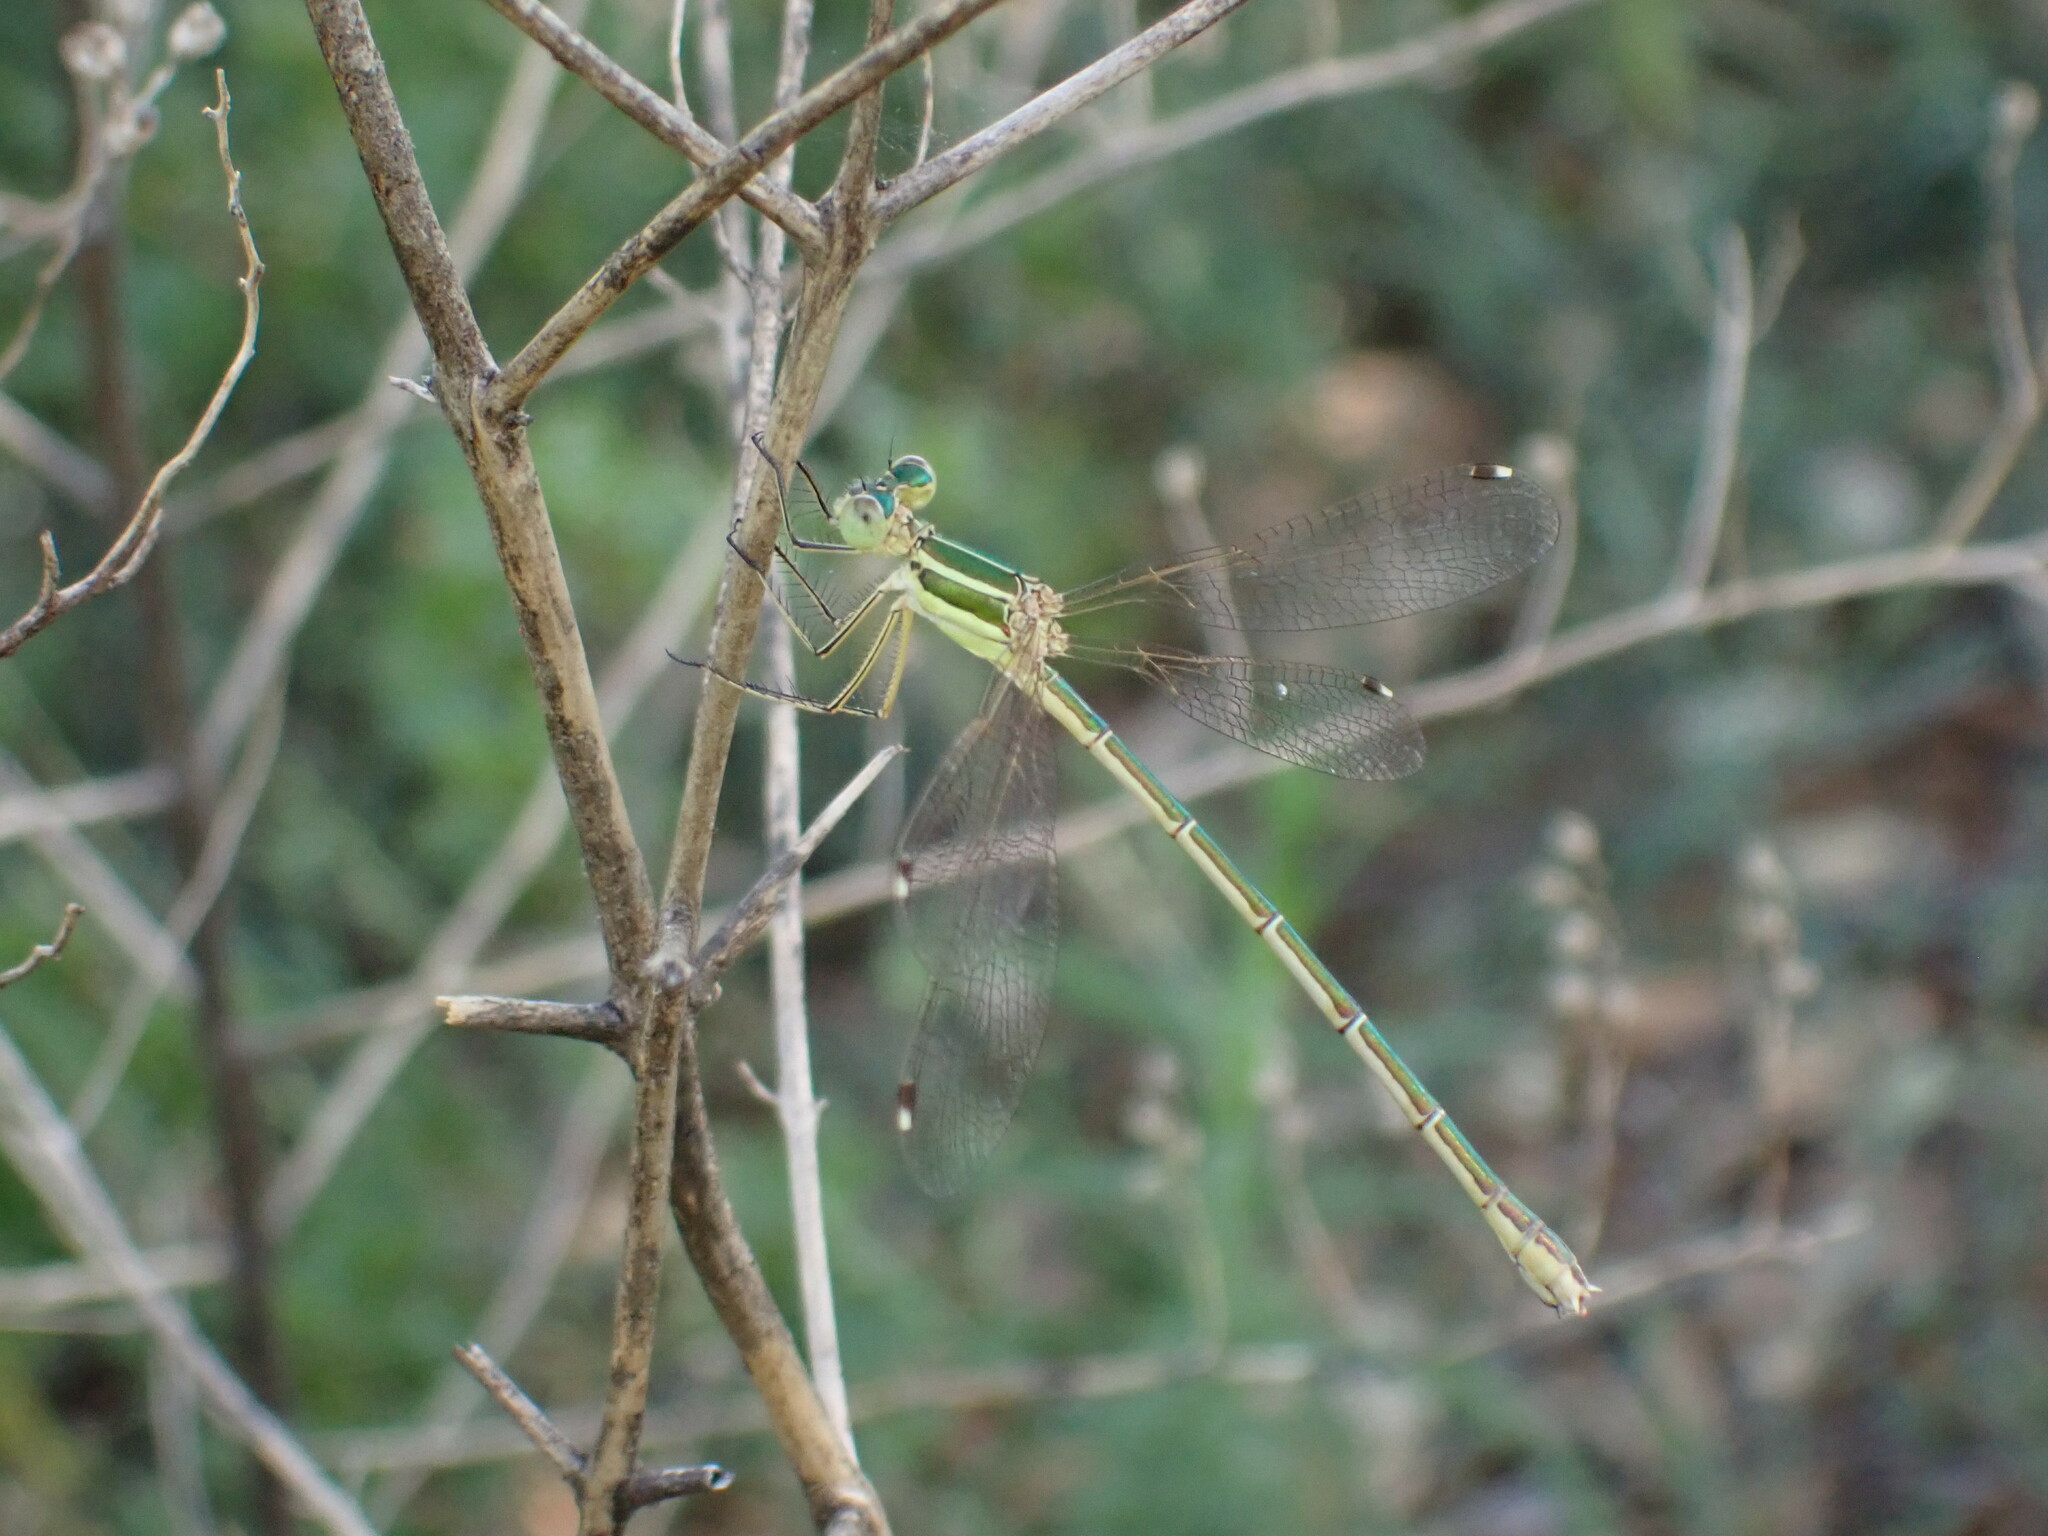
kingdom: Animalia
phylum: Arthropoda
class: Insecta
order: Odonata
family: Lestidae
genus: Lestes
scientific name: Lestes barbarus
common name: Migrant spreadwing
